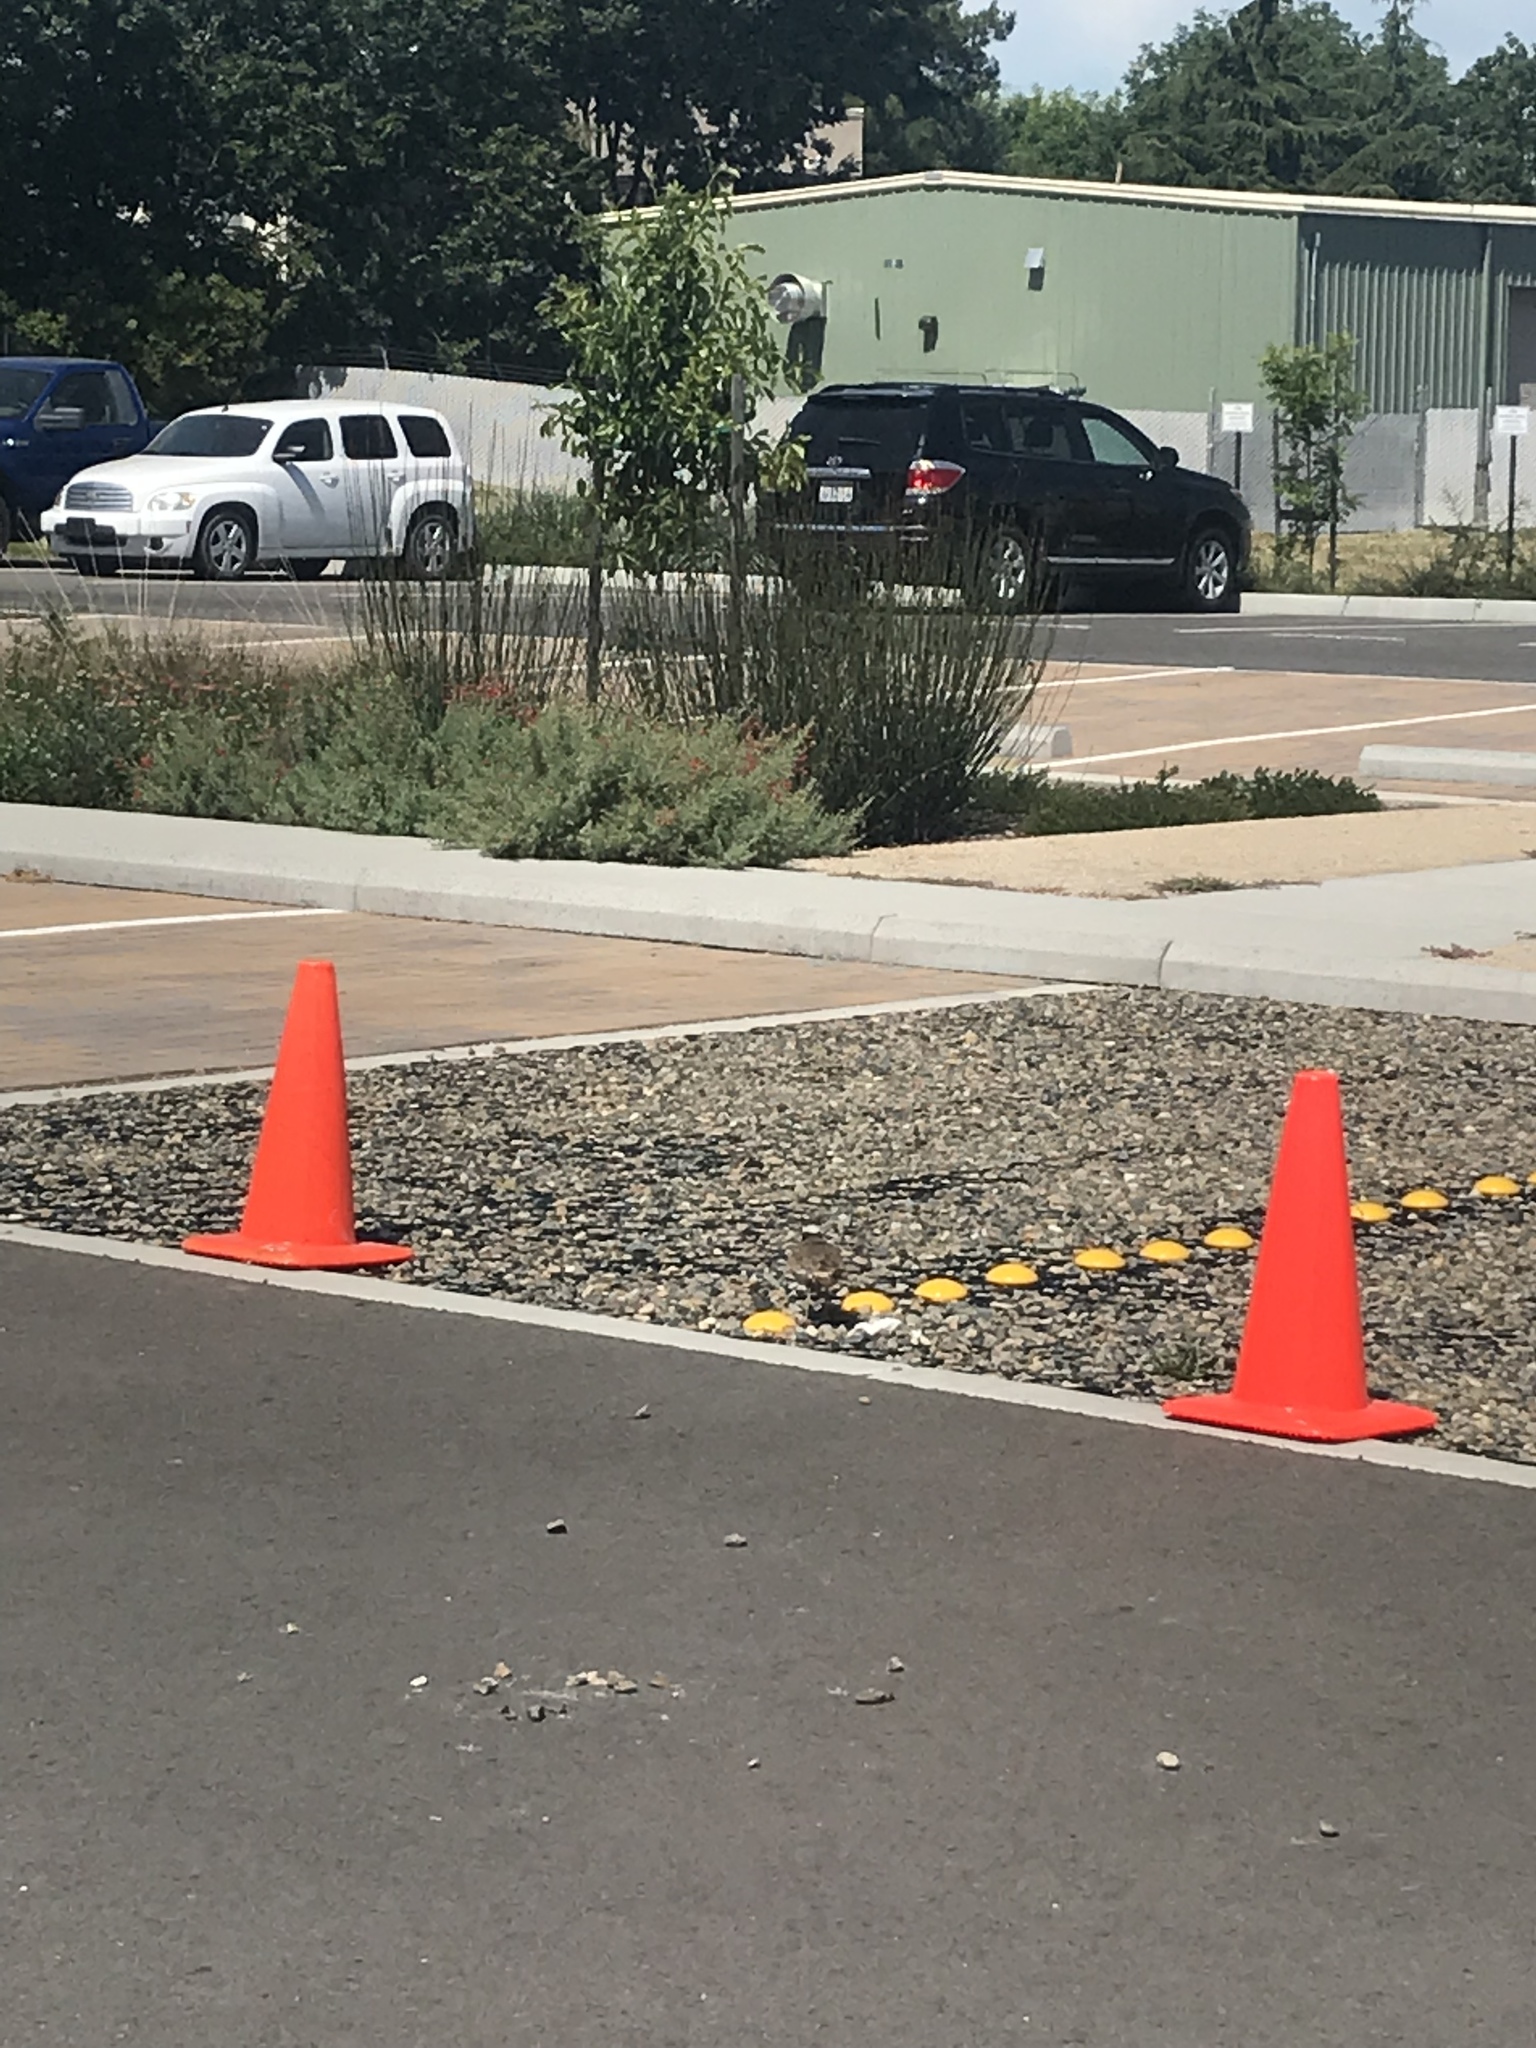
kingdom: Animalia
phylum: Chordata
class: Aves
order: Charadriiformes
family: Charadriidae
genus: Charadrius
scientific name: Charadrius vociferus
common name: Killdeer
